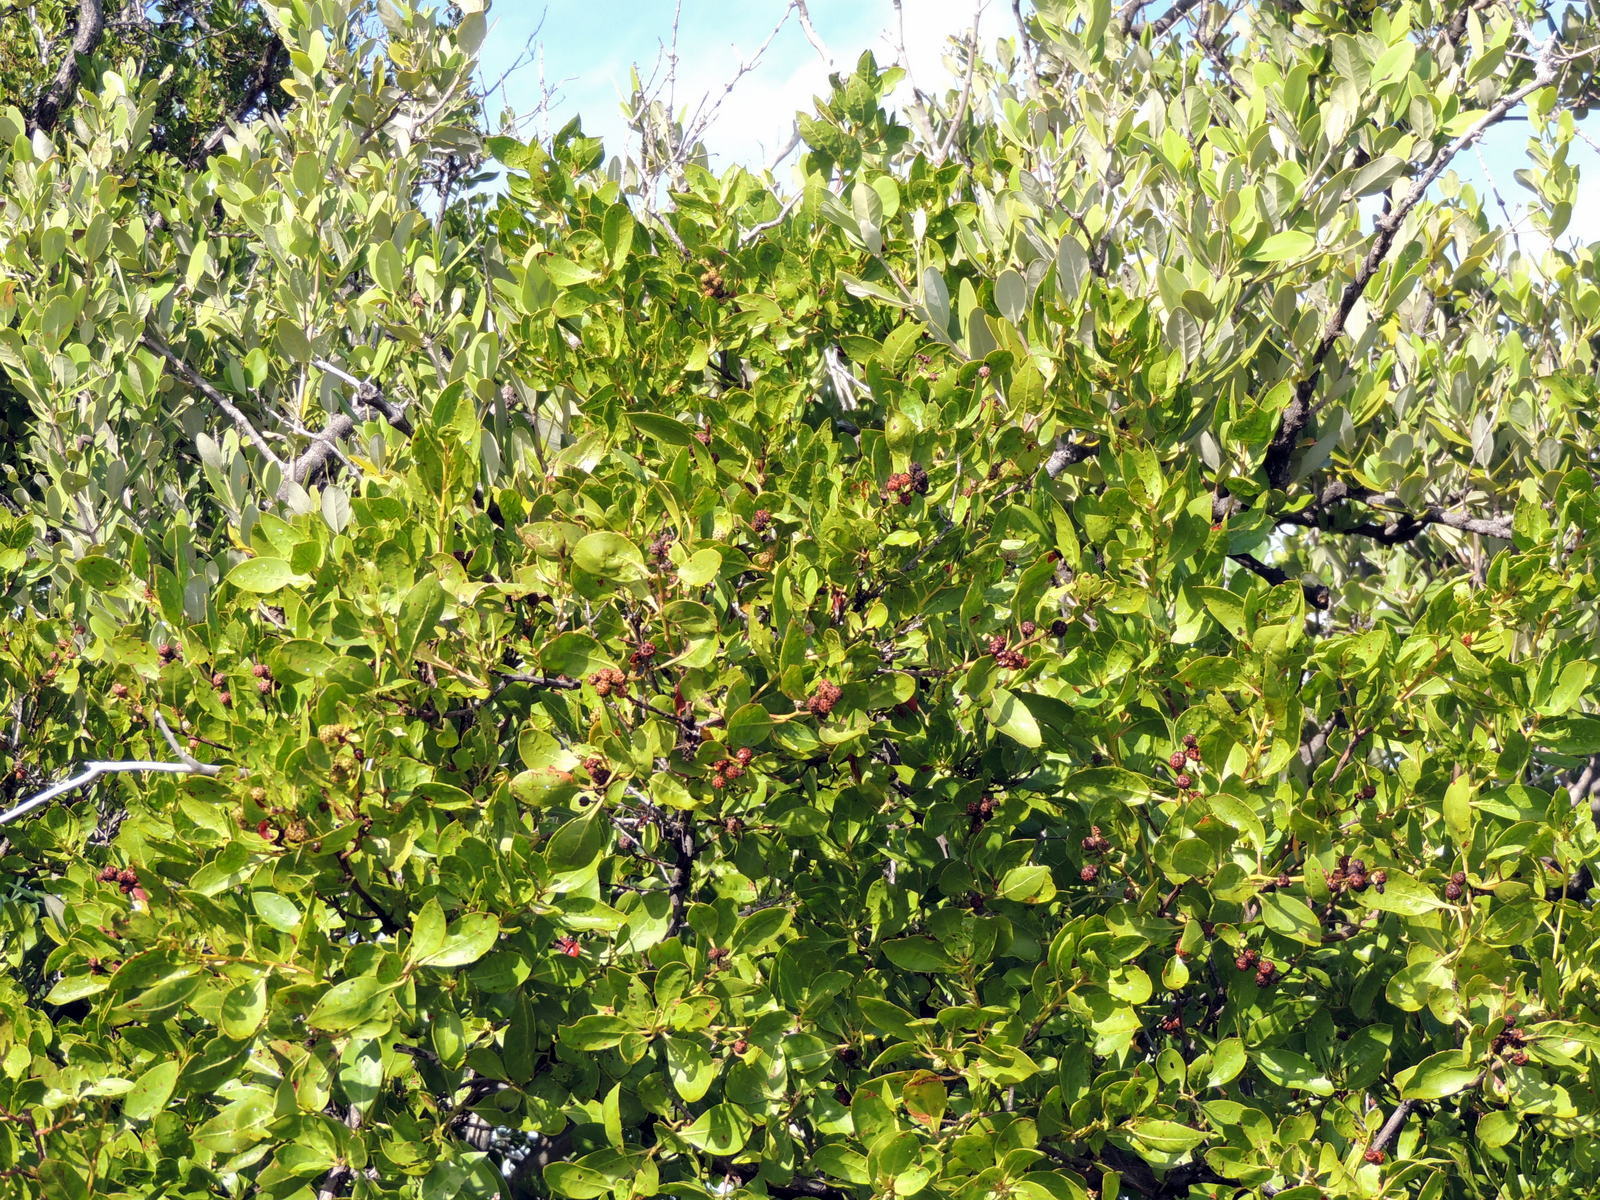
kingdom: Plantae
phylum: Tracheophyta
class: Magnoliopsida
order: Myrtales
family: Combretaceae
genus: Conocarpus
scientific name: Conocarpus erectus
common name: Button mangrove
